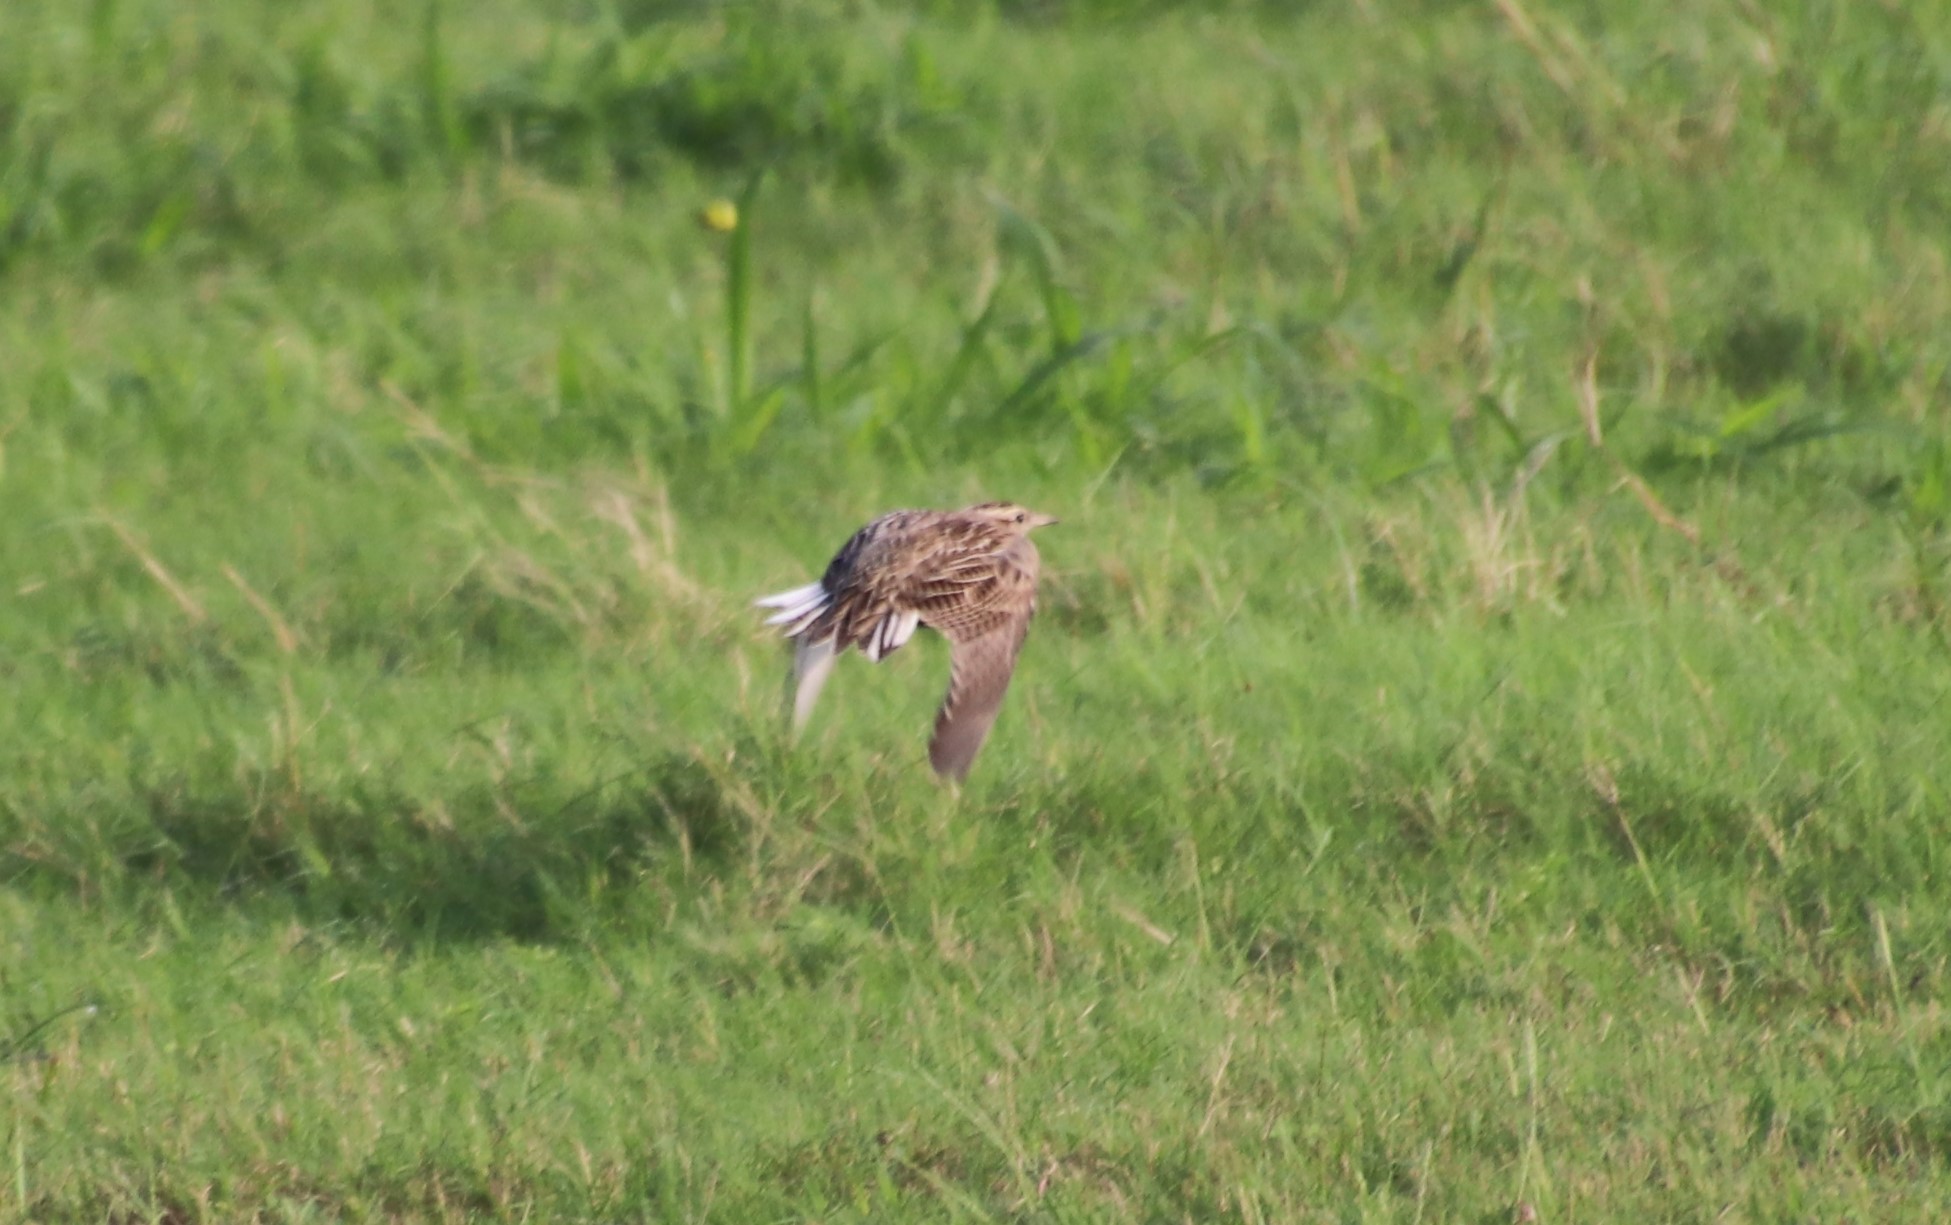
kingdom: Animalia
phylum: Chordata
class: Aves
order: Passeriformes
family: Icteridae
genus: Sturnella
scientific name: Sturnella magna
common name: Eastern meadowlark
